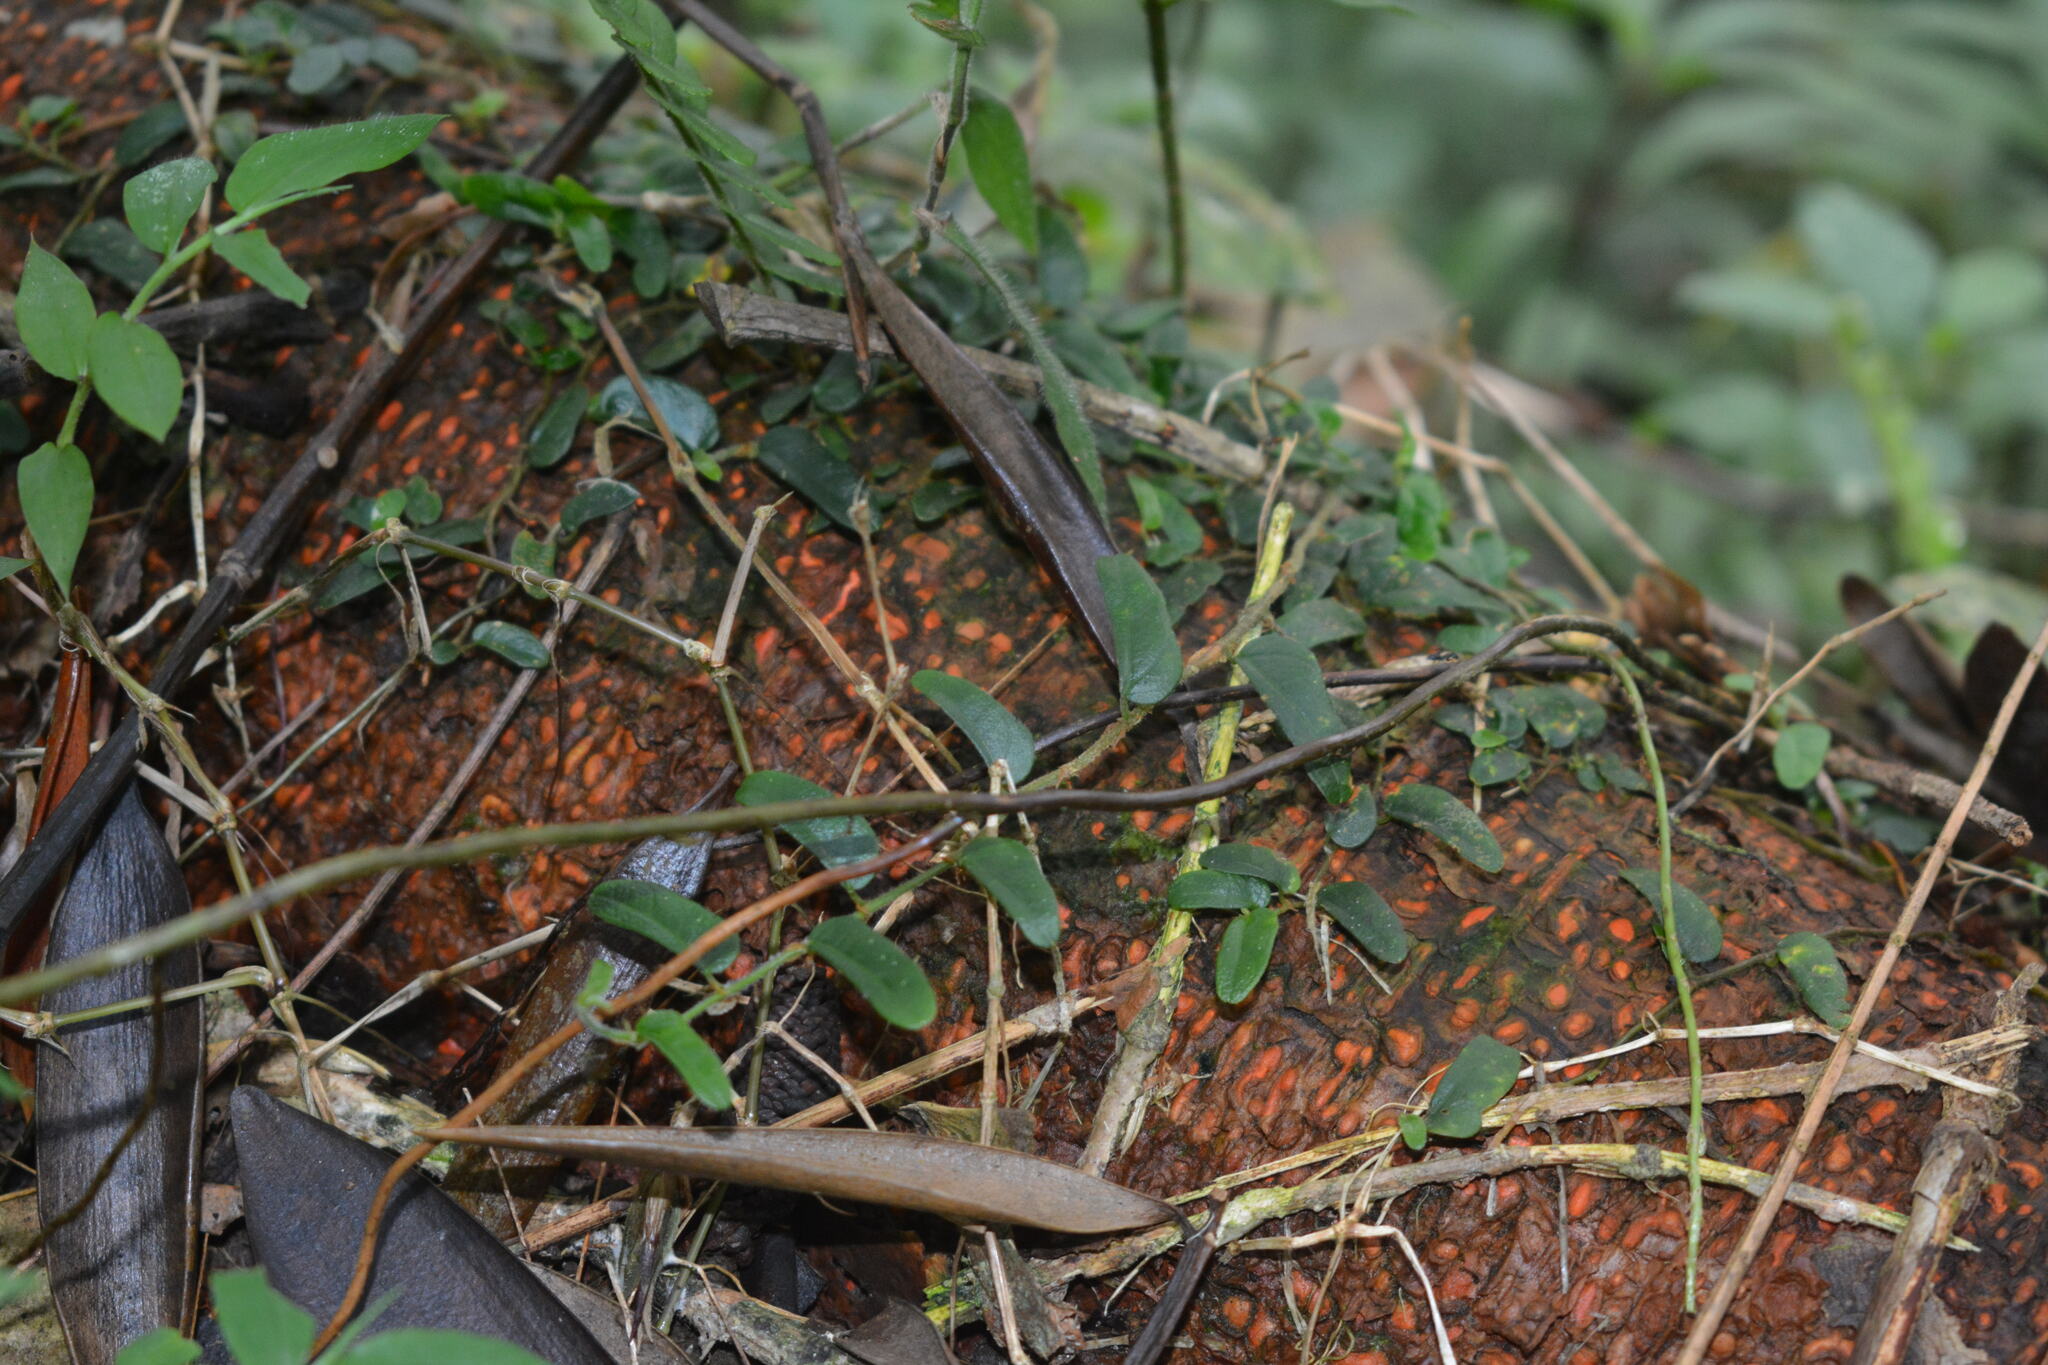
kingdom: Plantae
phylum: Tracheophyta
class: Magnoliopsida
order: Rosales
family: Moraceae
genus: Ficus
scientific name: Ficus punctata
